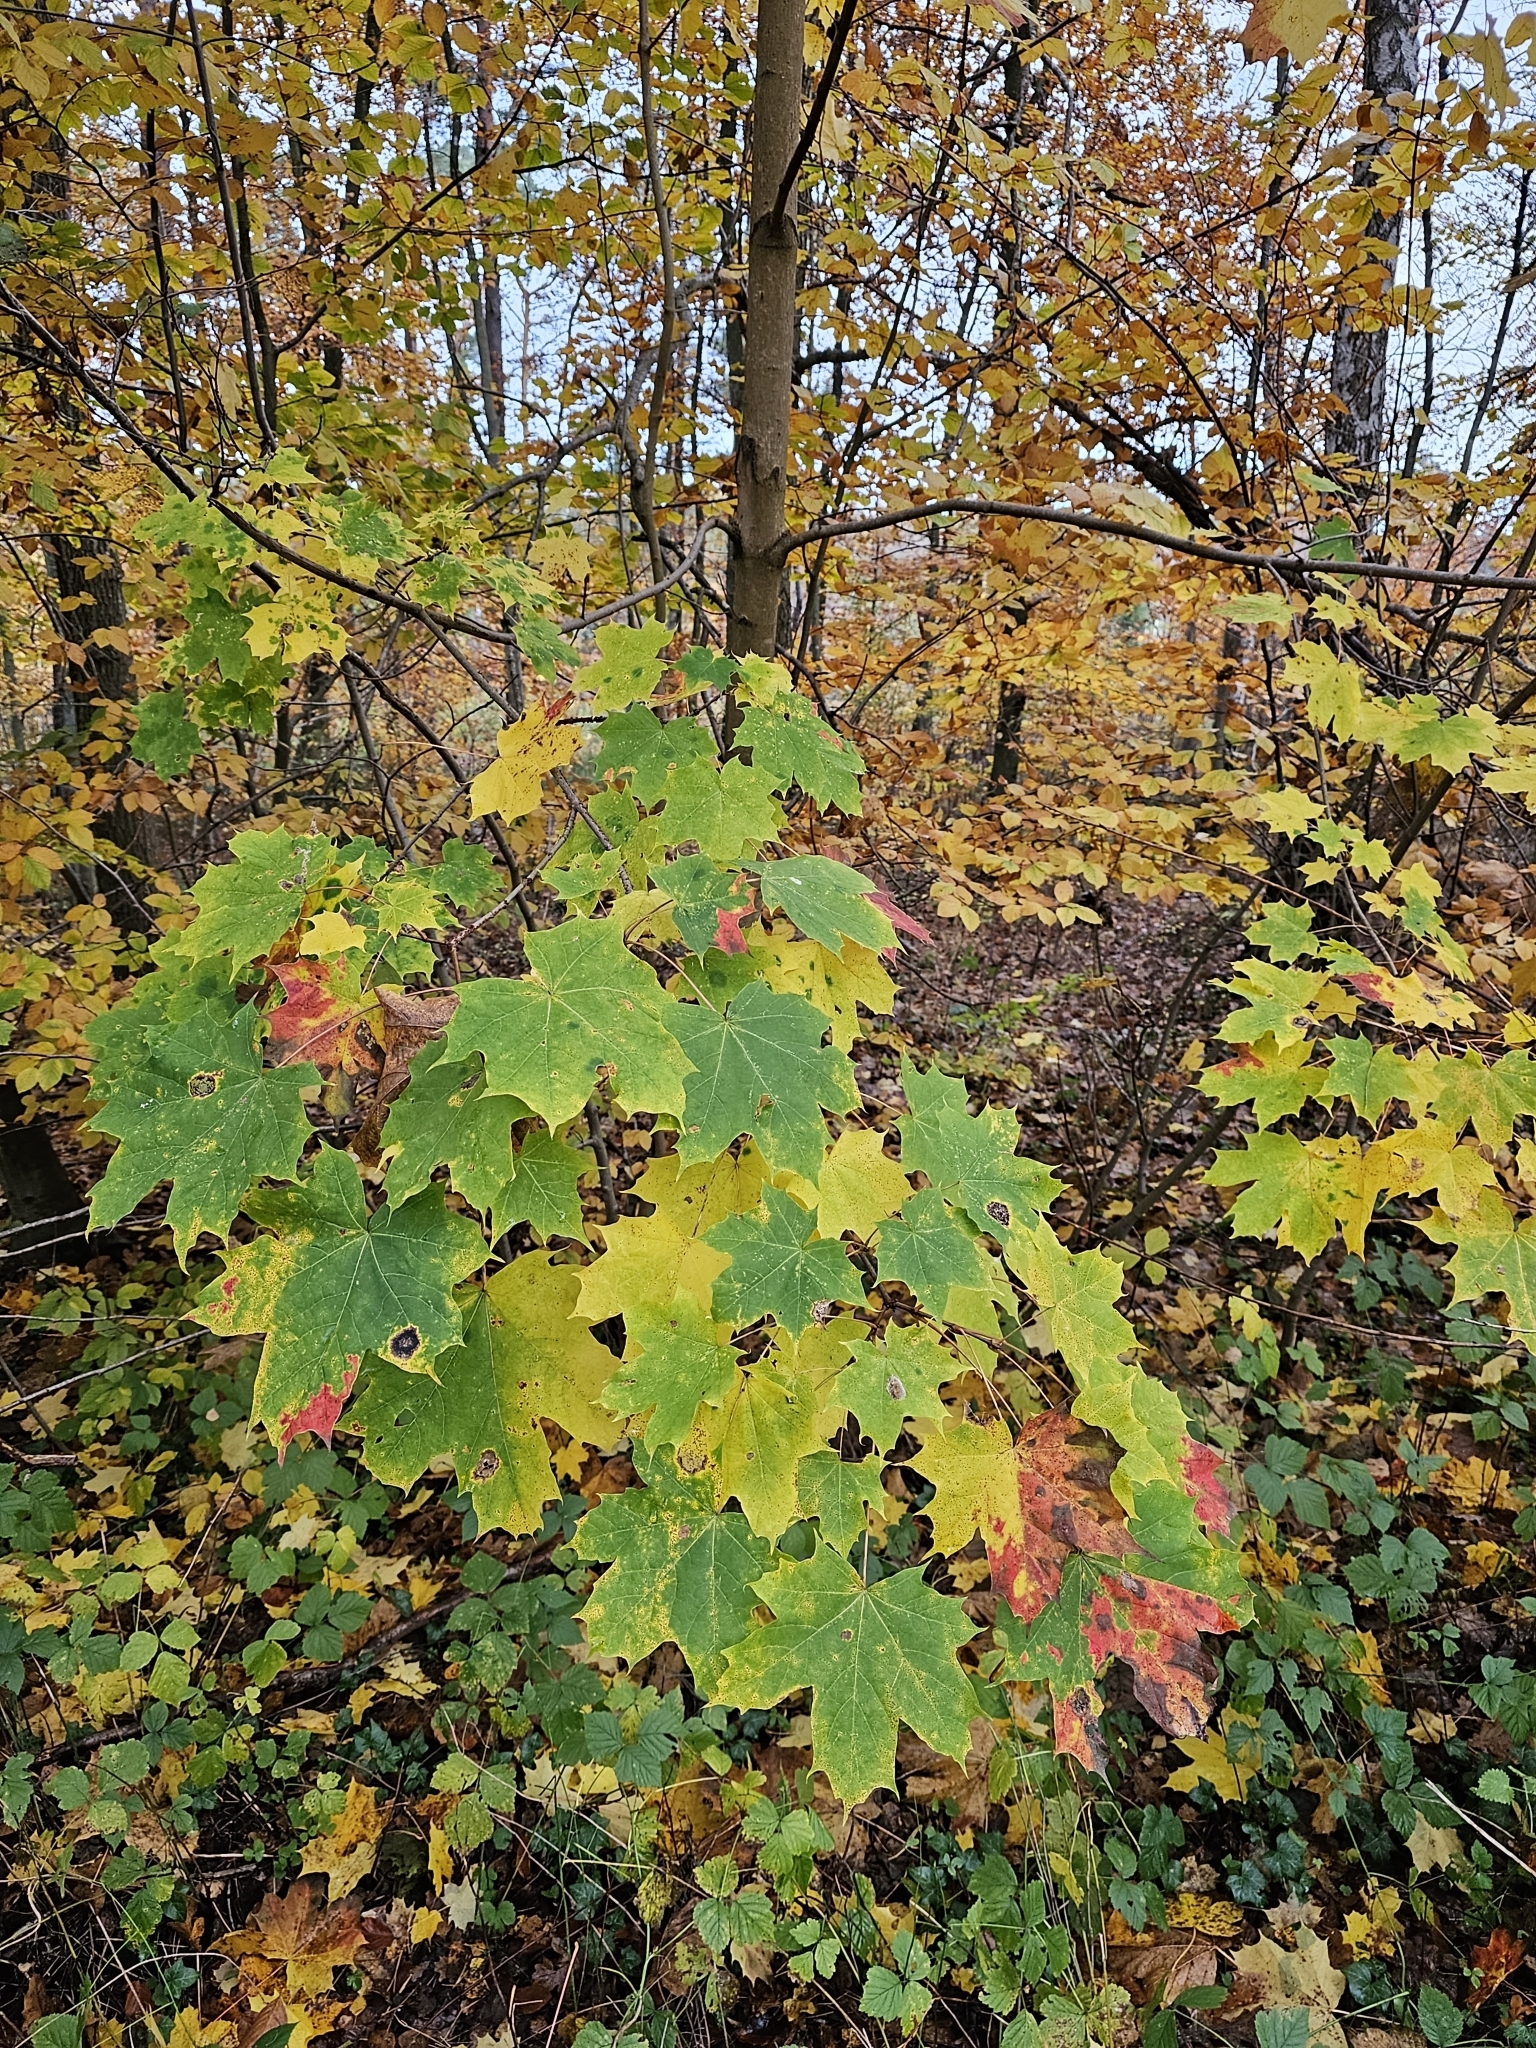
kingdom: Plantae
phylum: Tracheophyta
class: Magnoliopsida
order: Sapindales
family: Sapindaceae
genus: Acer
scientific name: Acer platanoides
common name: Norway maple
